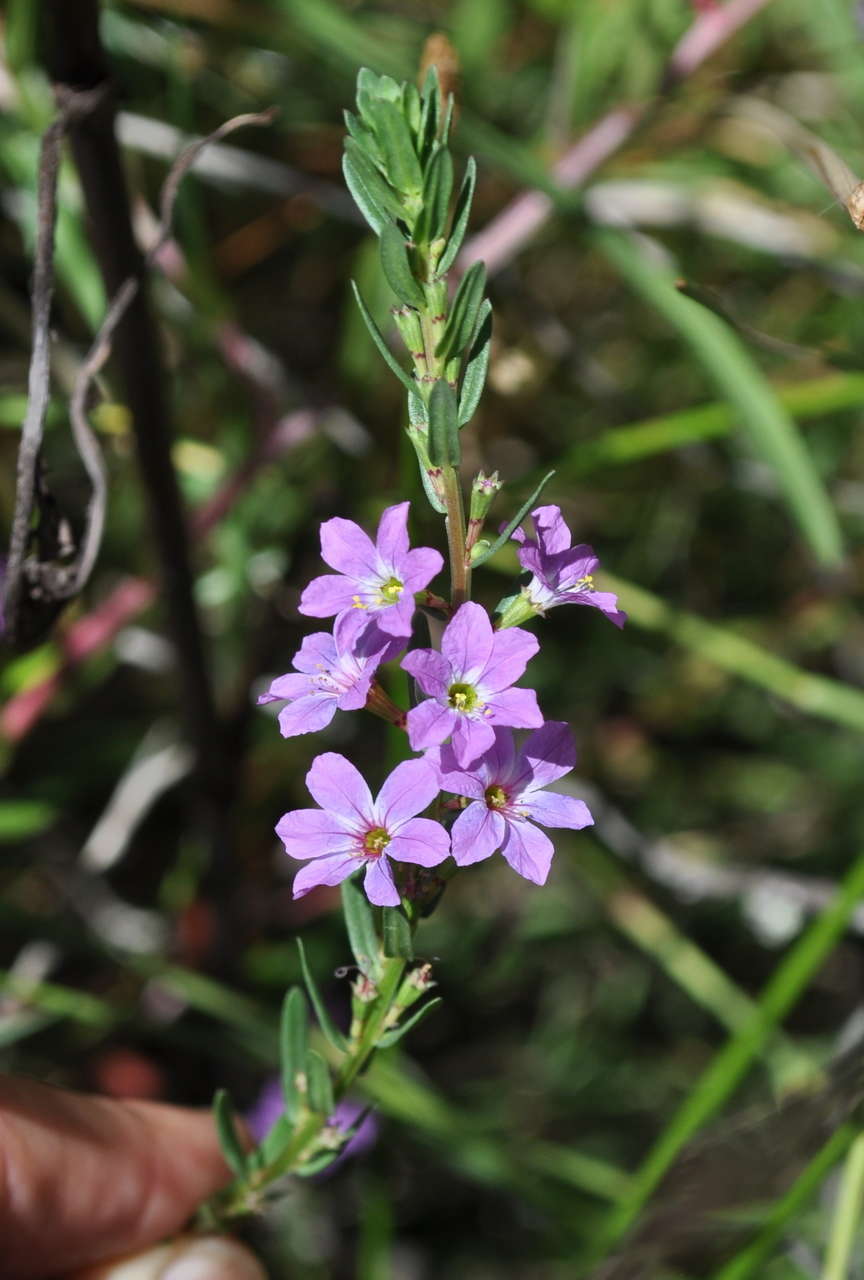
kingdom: Plantae
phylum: Tracheophyta
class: Magnoliopsida
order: Myrtales
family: Lythraceae
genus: Lythrum
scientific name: Lythrum junceum
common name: False grass-poly
